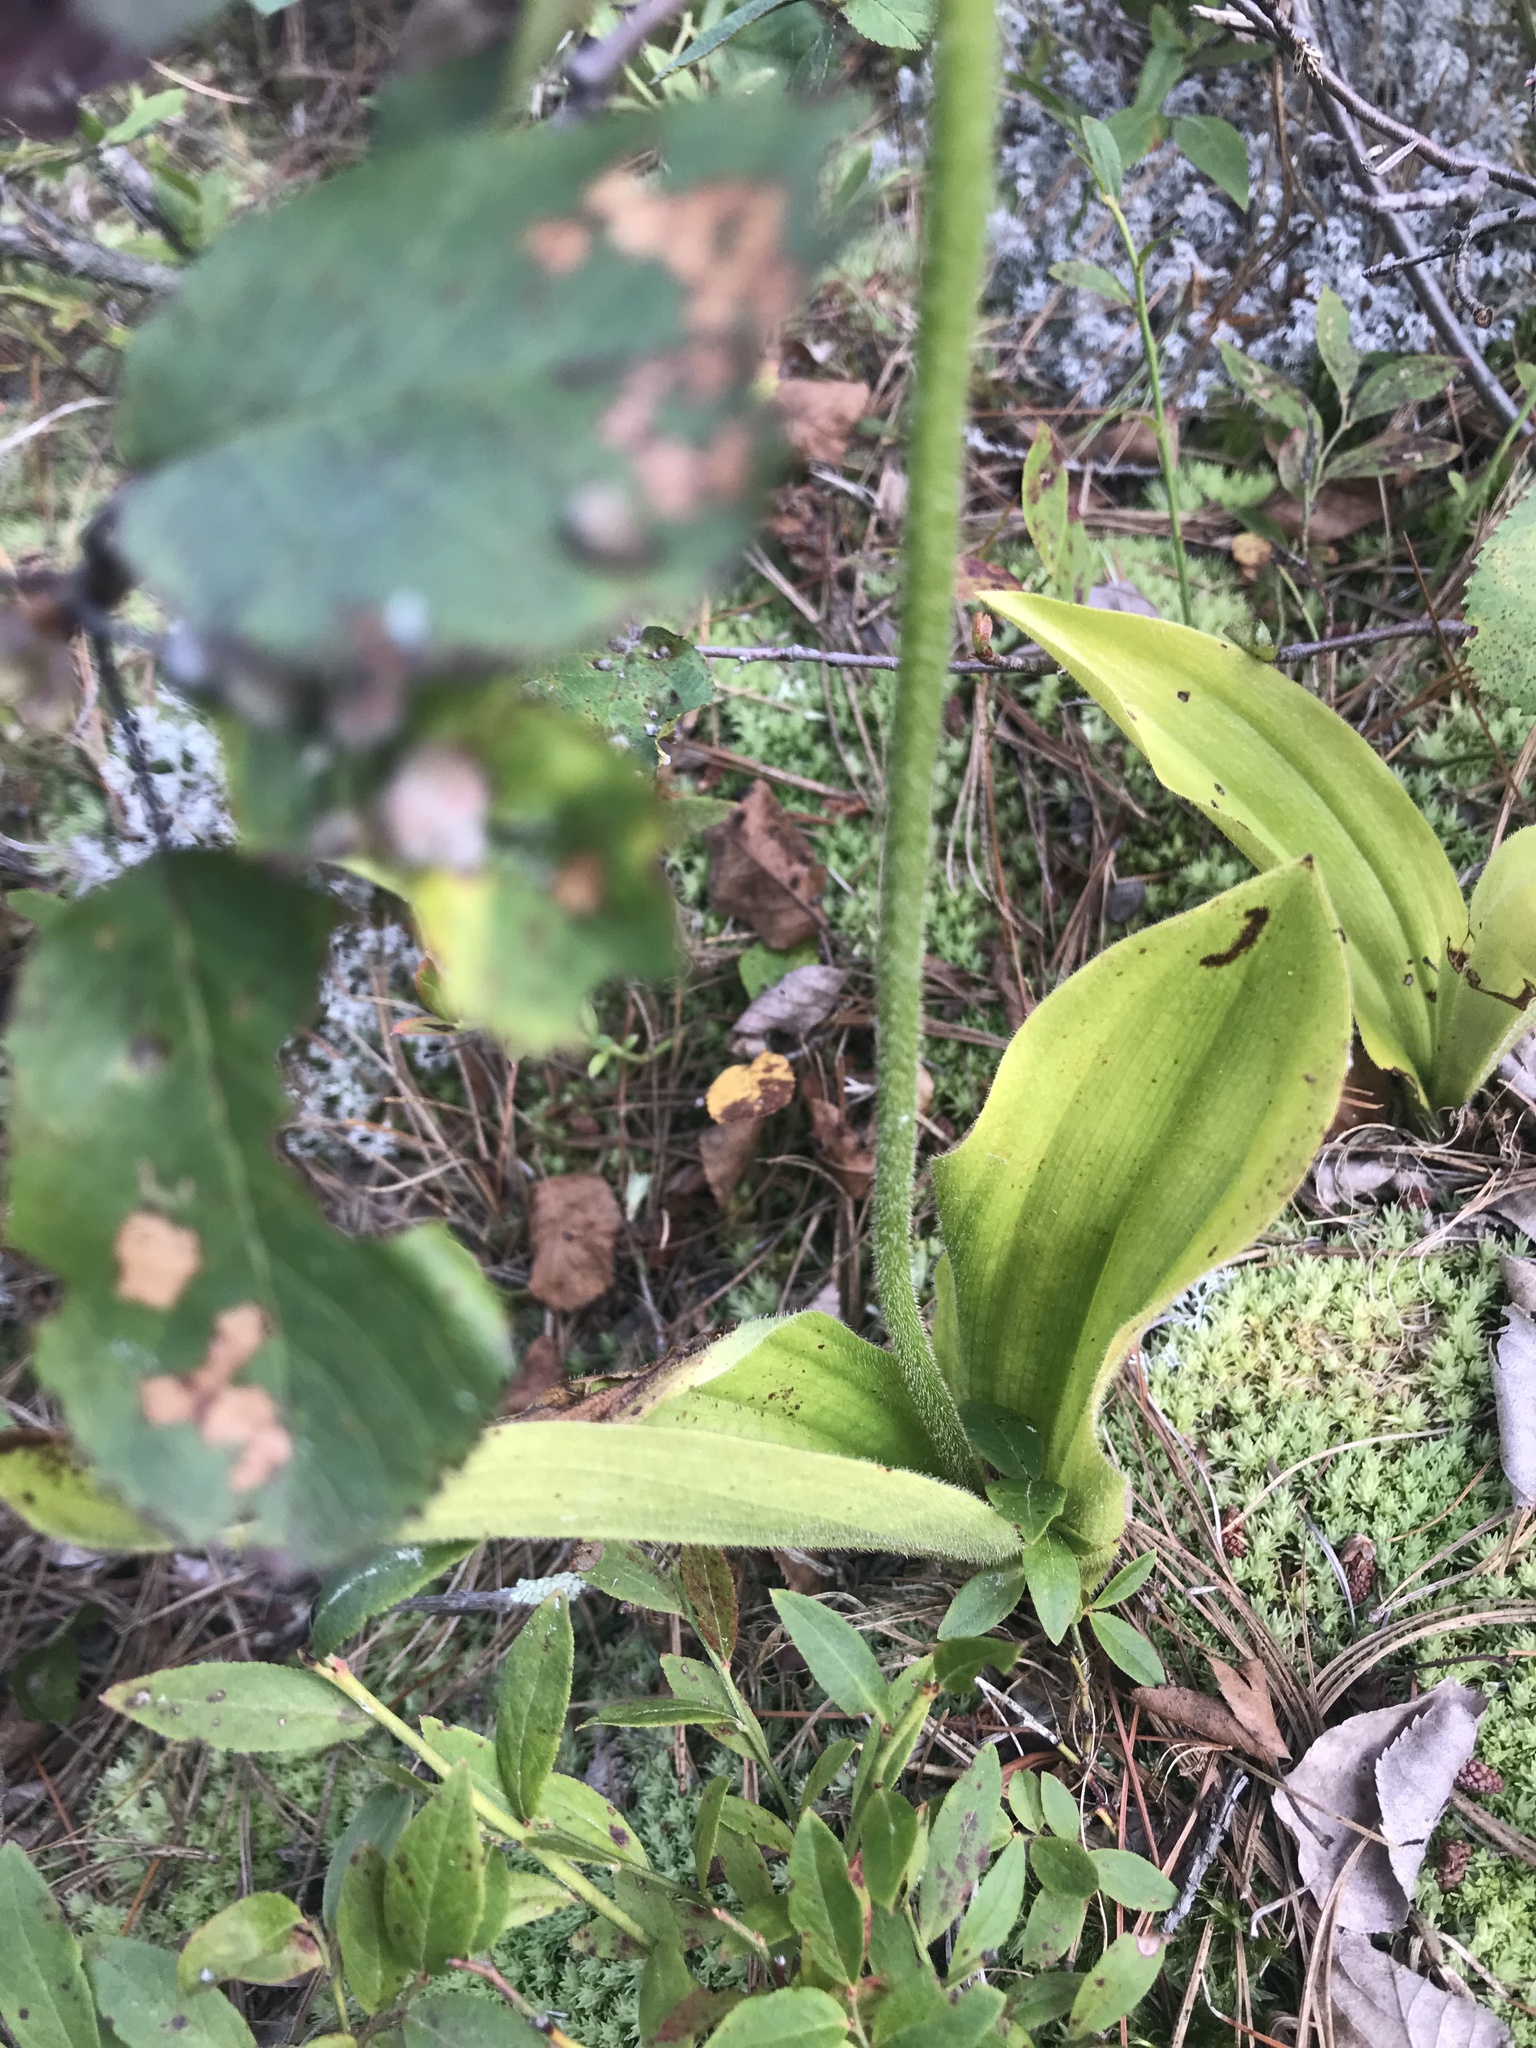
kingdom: Plantae
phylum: Tracheophyta
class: Liliopsida
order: Asparagales
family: Orchidaceae
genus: Cypripedium
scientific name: Cypripedium acaule
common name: Pink lady's-slipper
